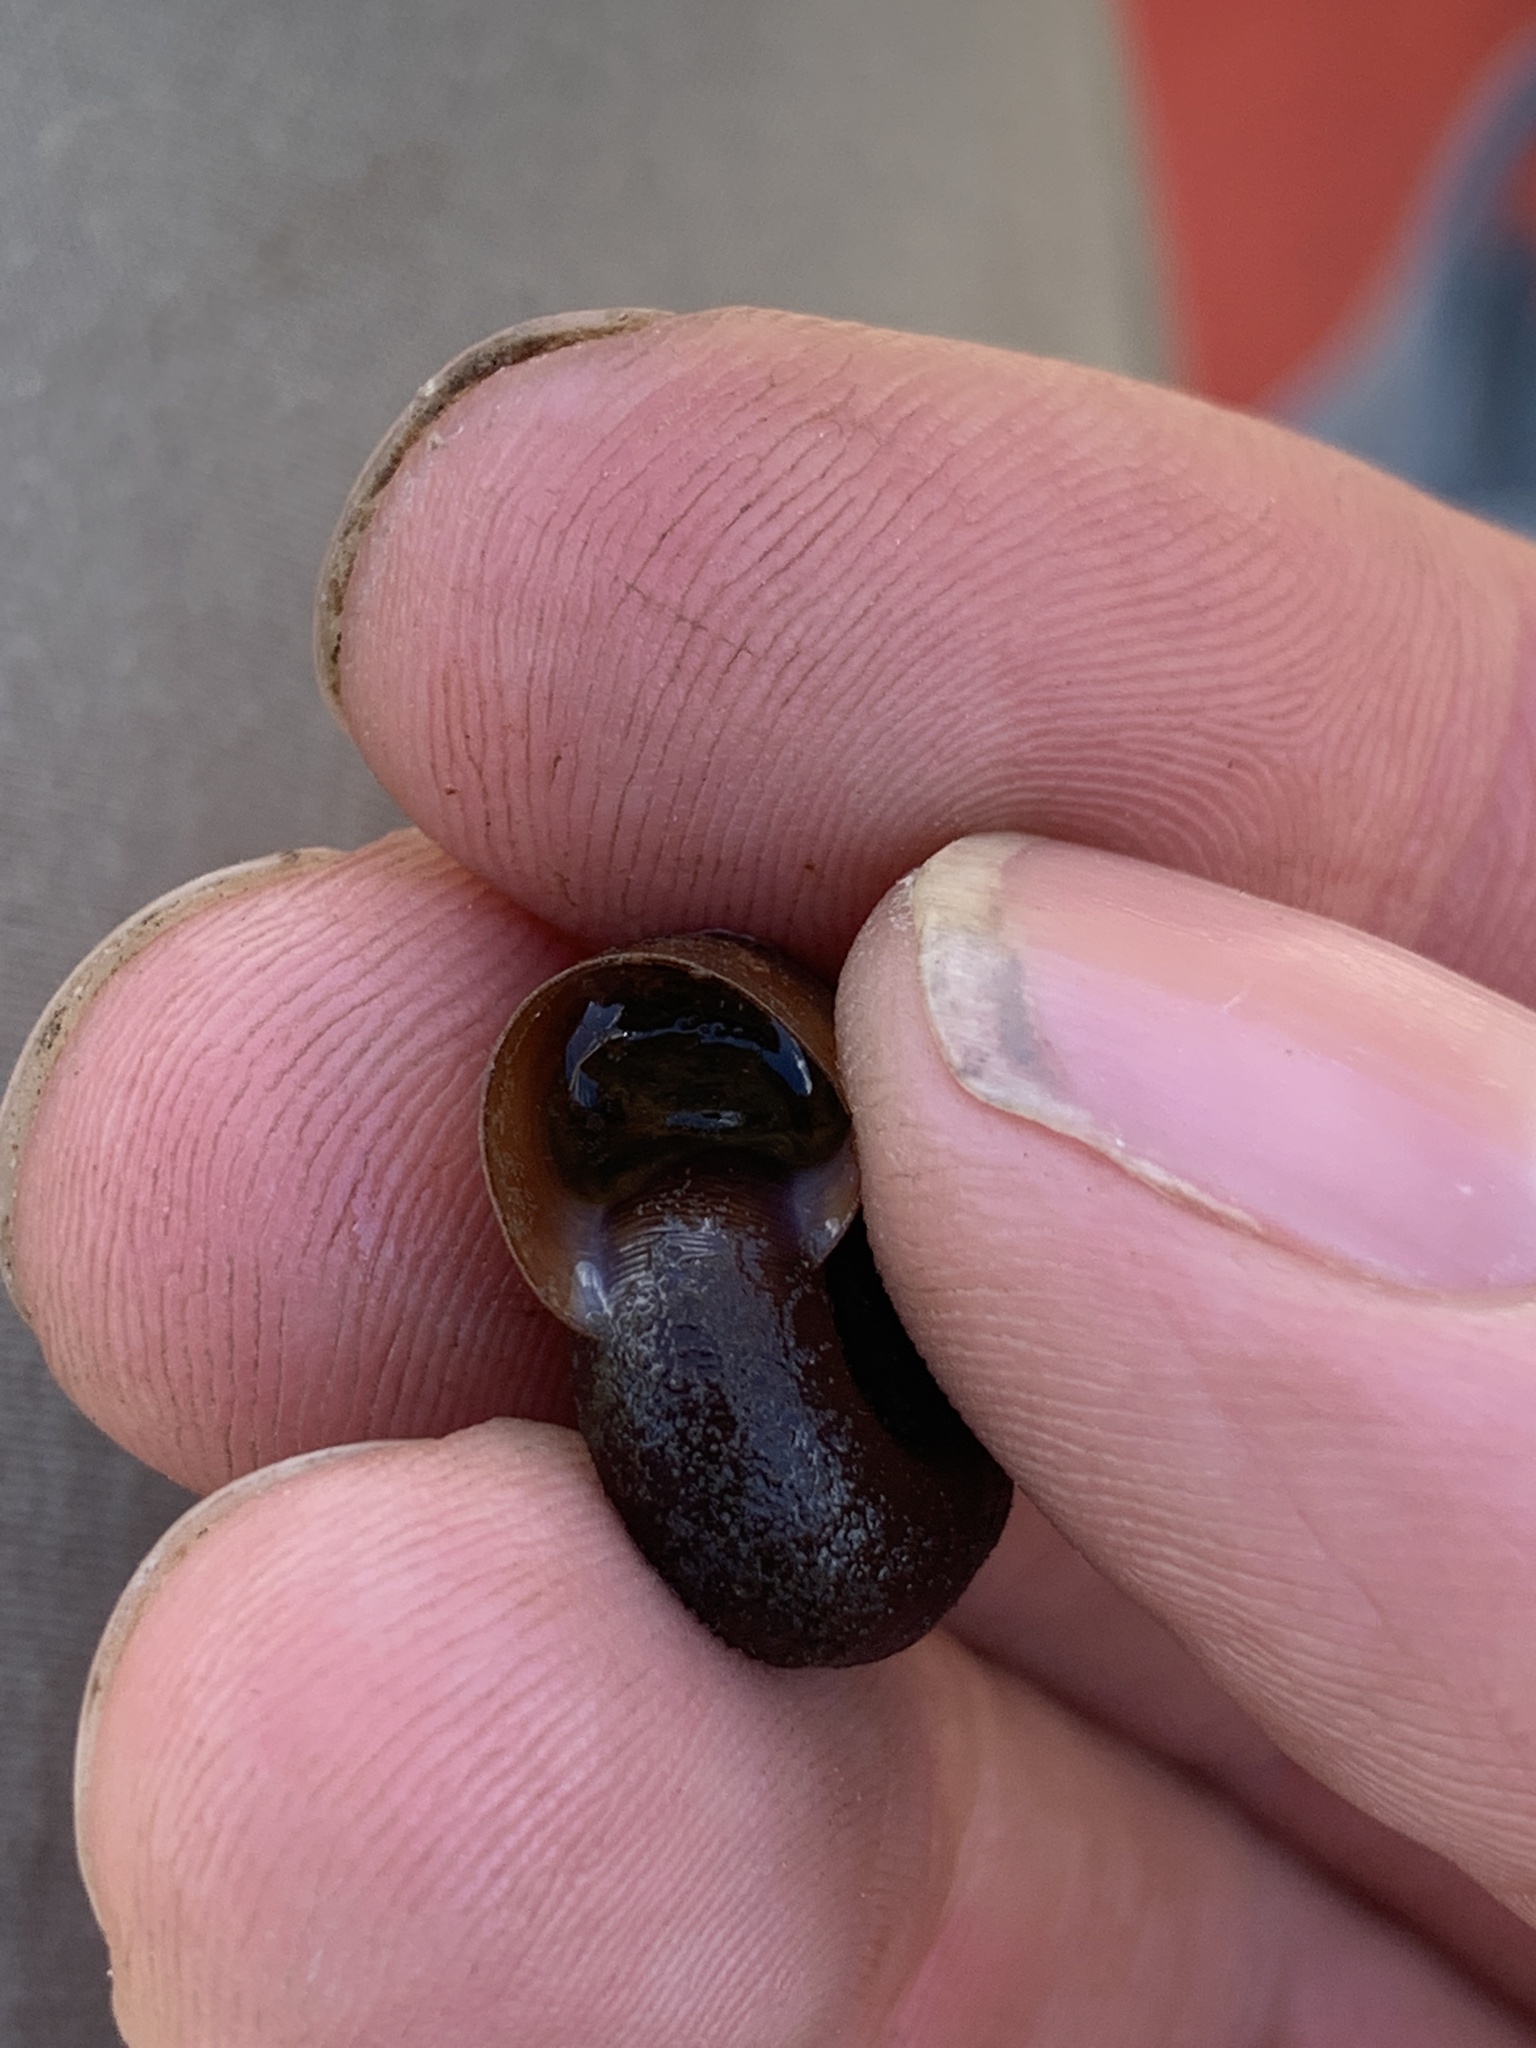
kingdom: Animalia
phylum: Mollusca
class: Gastropoda
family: Planorbidae
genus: Planorbella
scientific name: Planorbella trivolvis
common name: Marsh rams-horn
